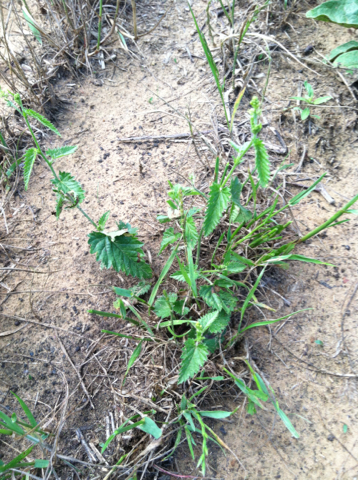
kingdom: Plantae
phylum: Tracheophyta
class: Magnoliopsida
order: Malpighiales
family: Euphorbiaceae
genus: Tragia
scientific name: Tragia ramosa
